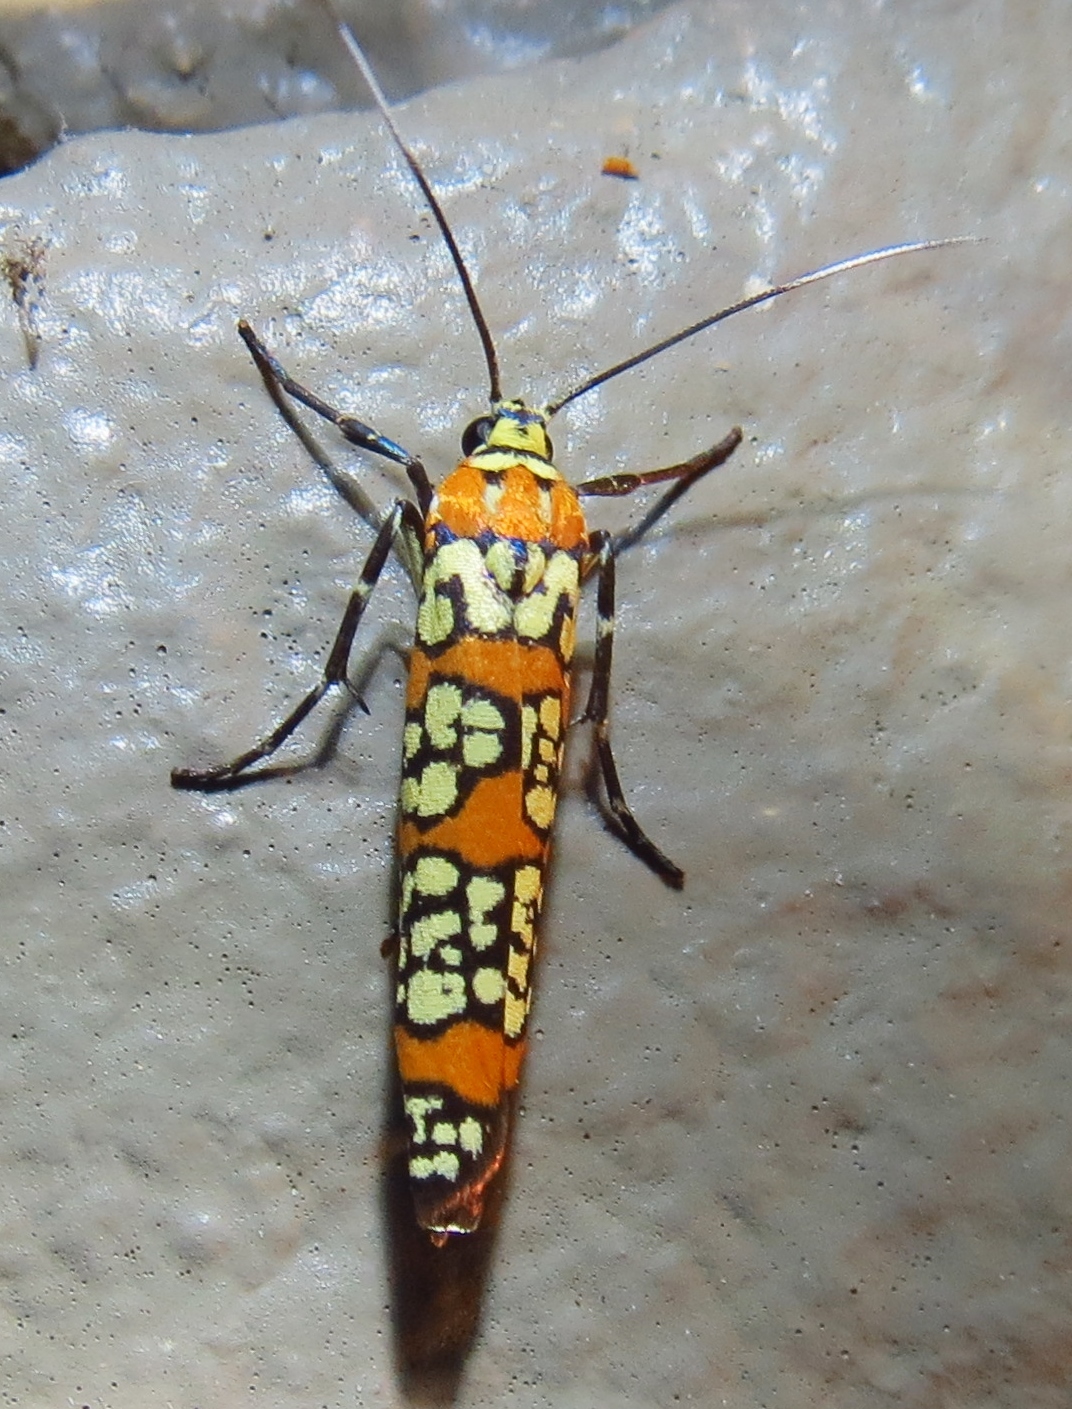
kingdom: Animalia
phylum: Arthropoda
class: Insecta
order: Lepidoptera
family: Attevidae
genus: Atteva
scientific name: Atteva punctella
